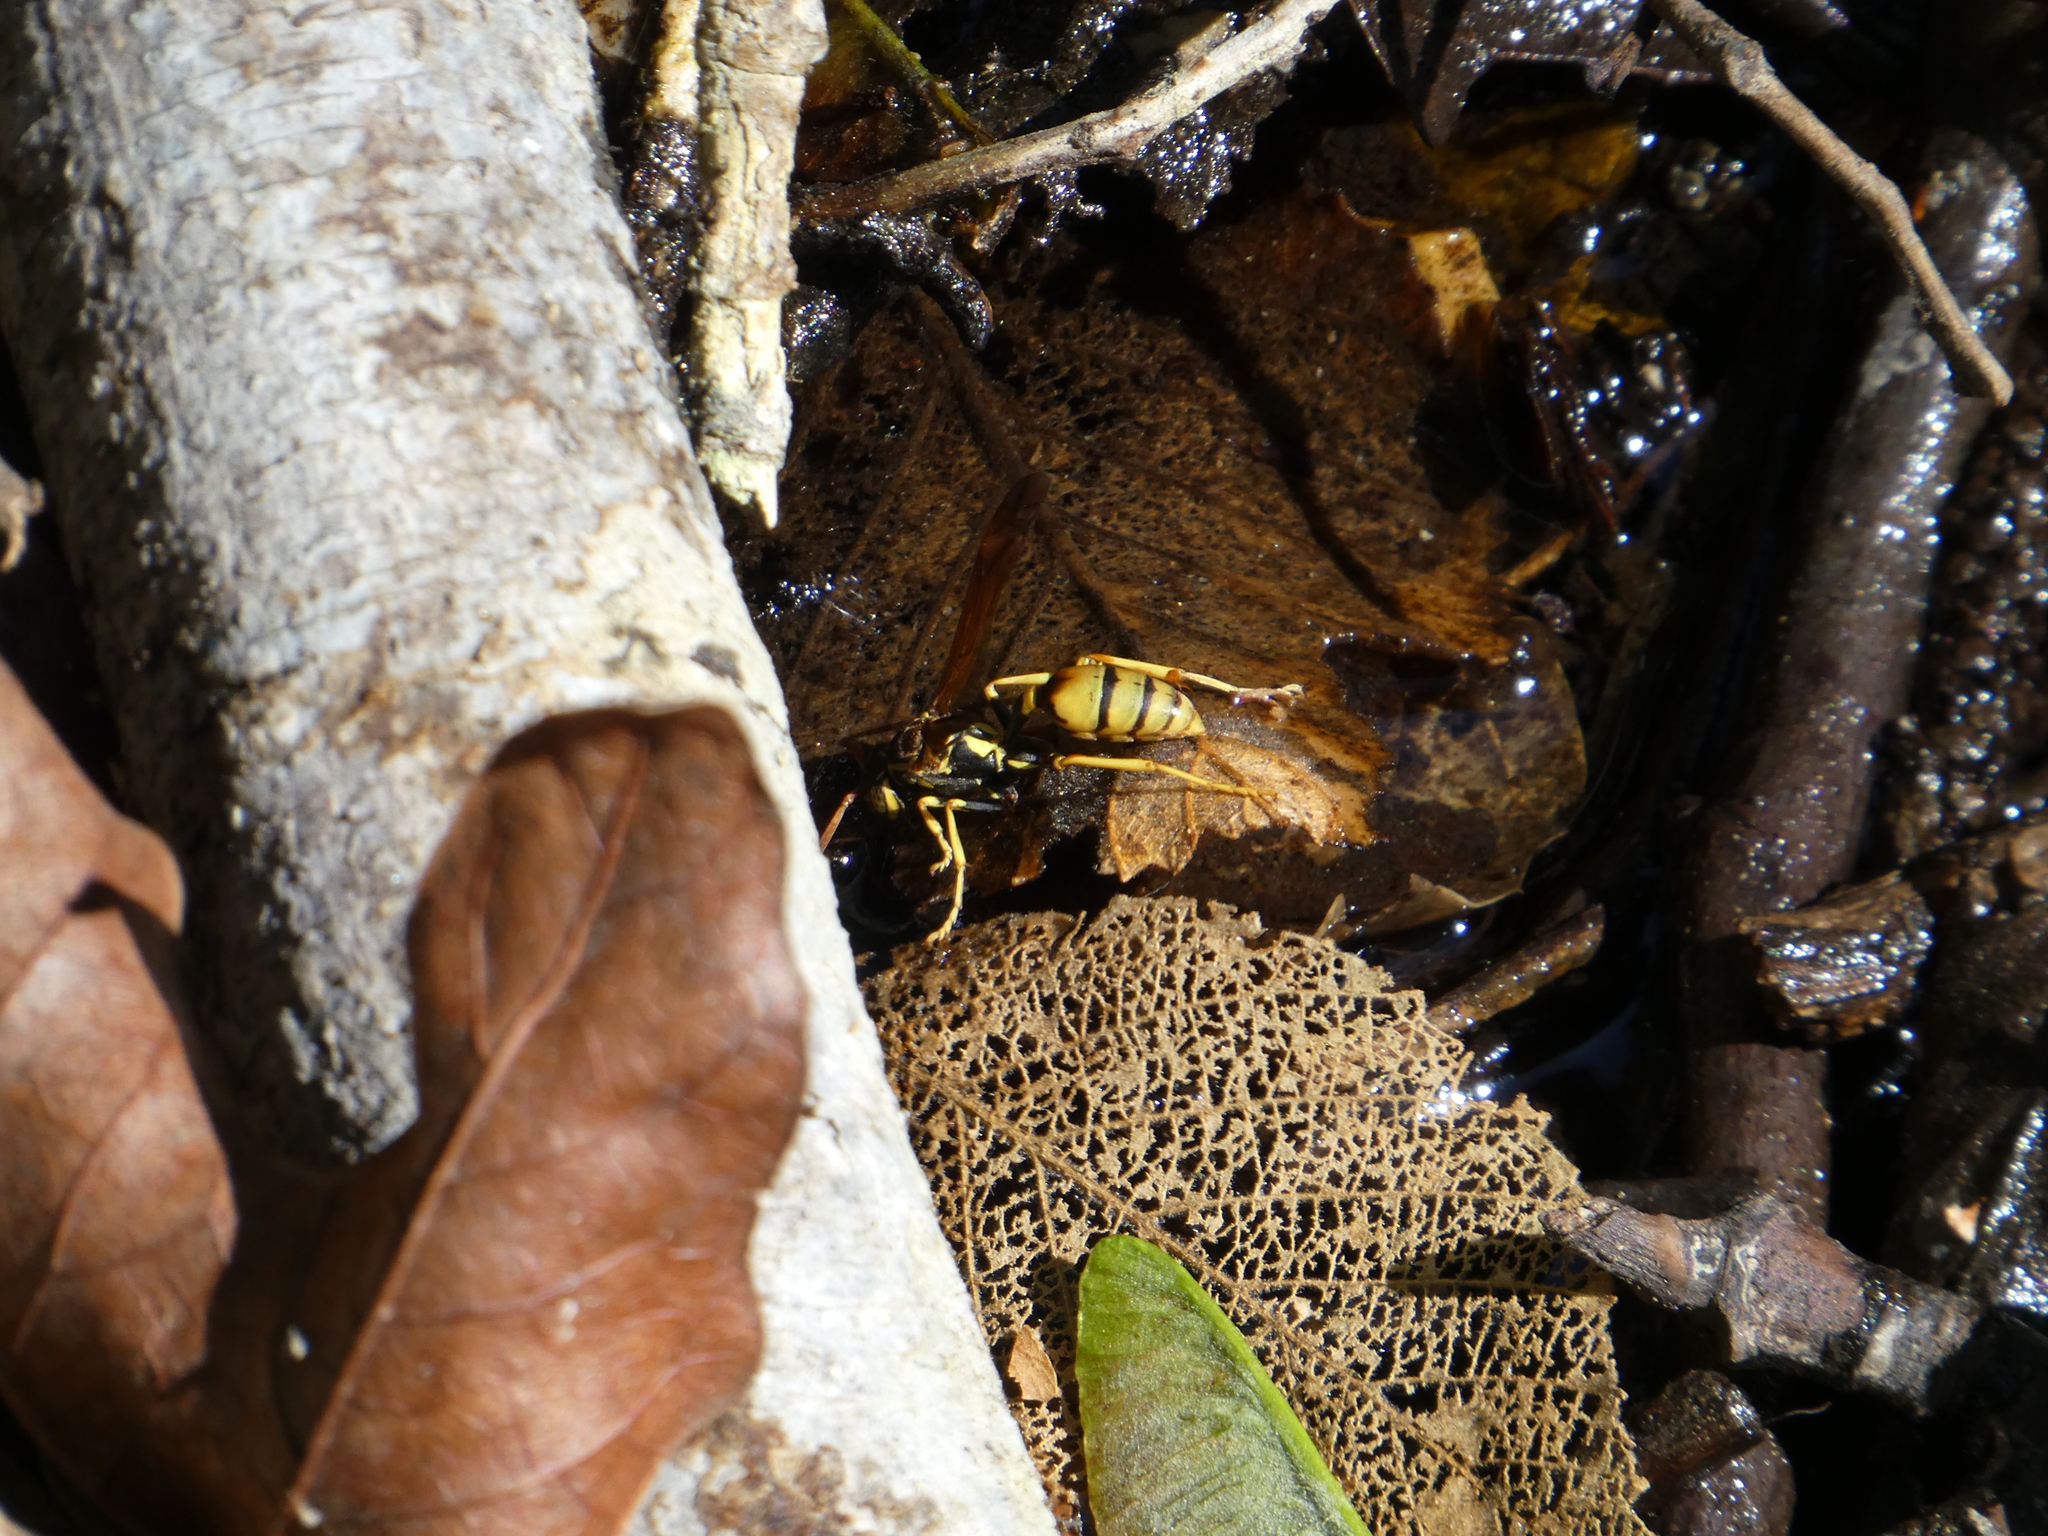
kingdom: Animalia
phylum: Arthropoda
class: Insecta
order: Hymenoptera
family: Vespidae
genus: Mischocyttarus
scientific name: Mischocyttarus flavitarsis
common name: Wasp
